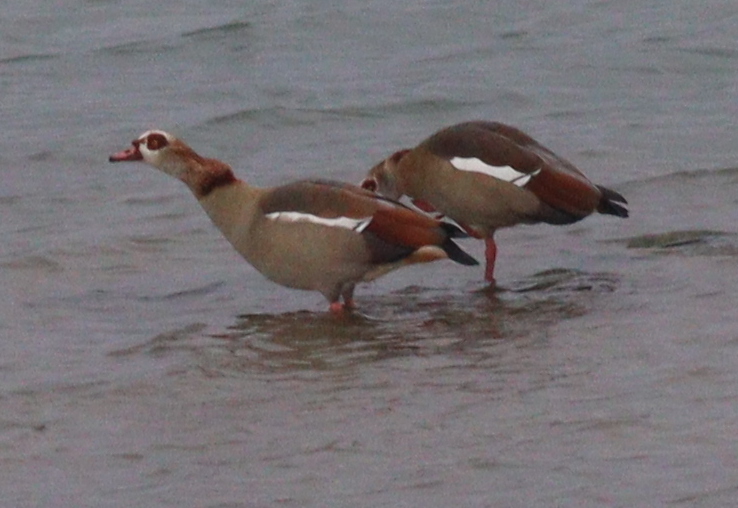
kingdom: Animalia
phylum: Chordata
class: Aves
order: Anseriformes
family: Anatidae
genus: Alopochen
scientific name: Alopochen aegyptiaca
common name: Egyptian goose
